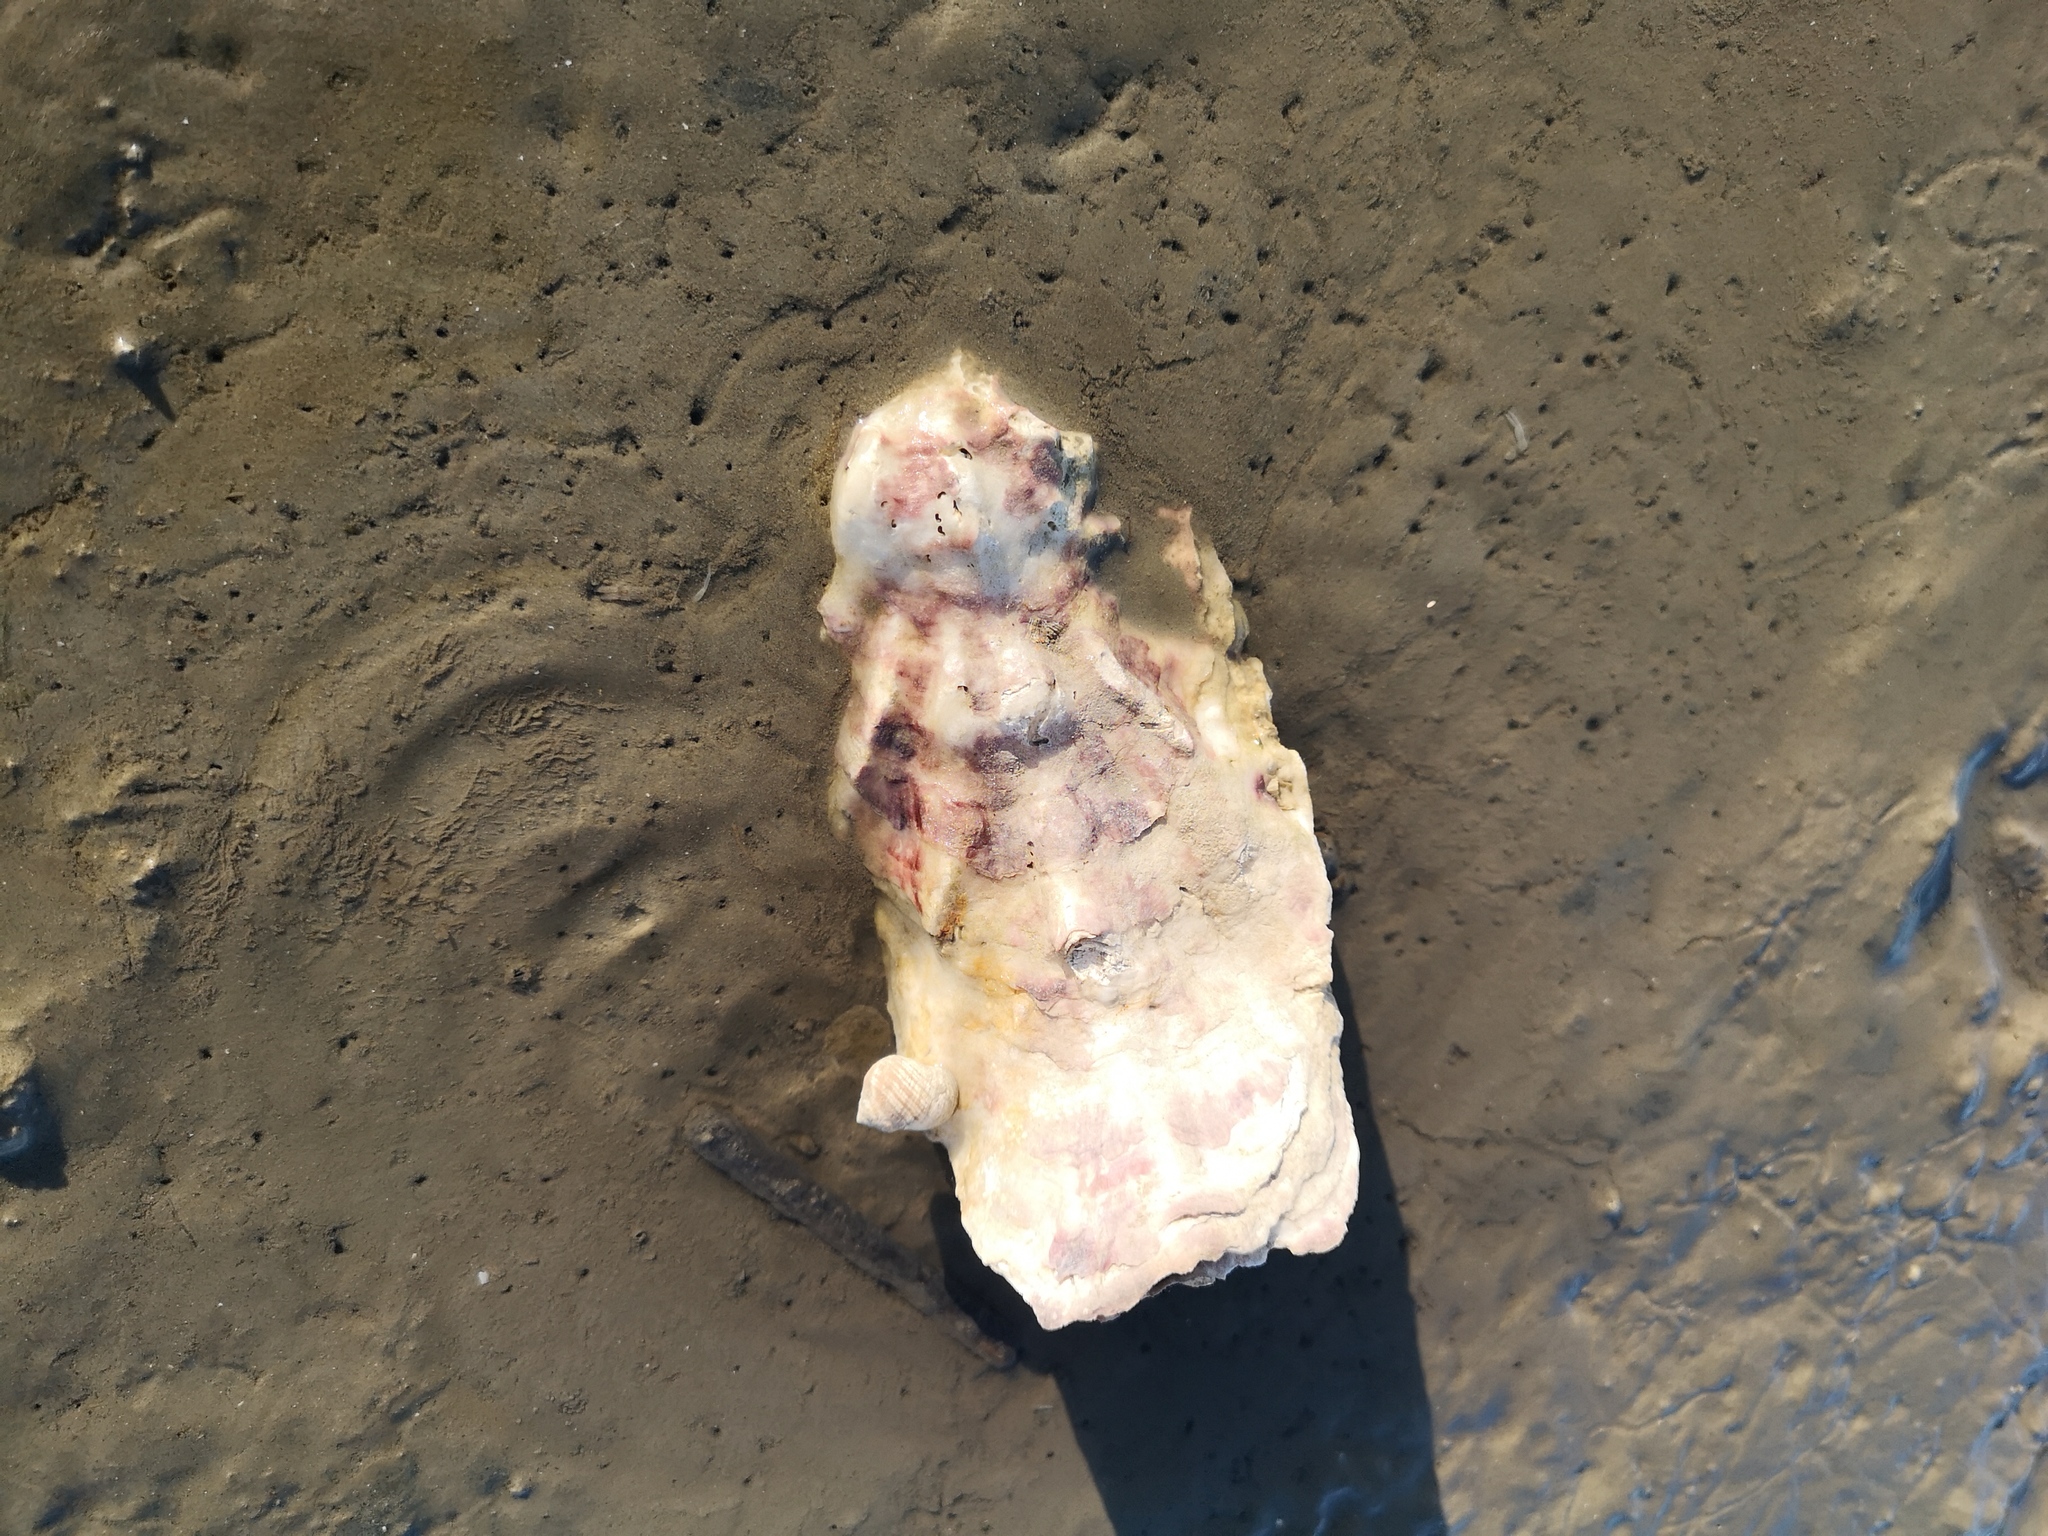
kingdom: Animalia
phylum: Mollusca
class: Bivalvia
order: Ostreida
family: Ostreidae
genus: Magallana
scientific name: Magallana gigas
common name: Pacific oyster
